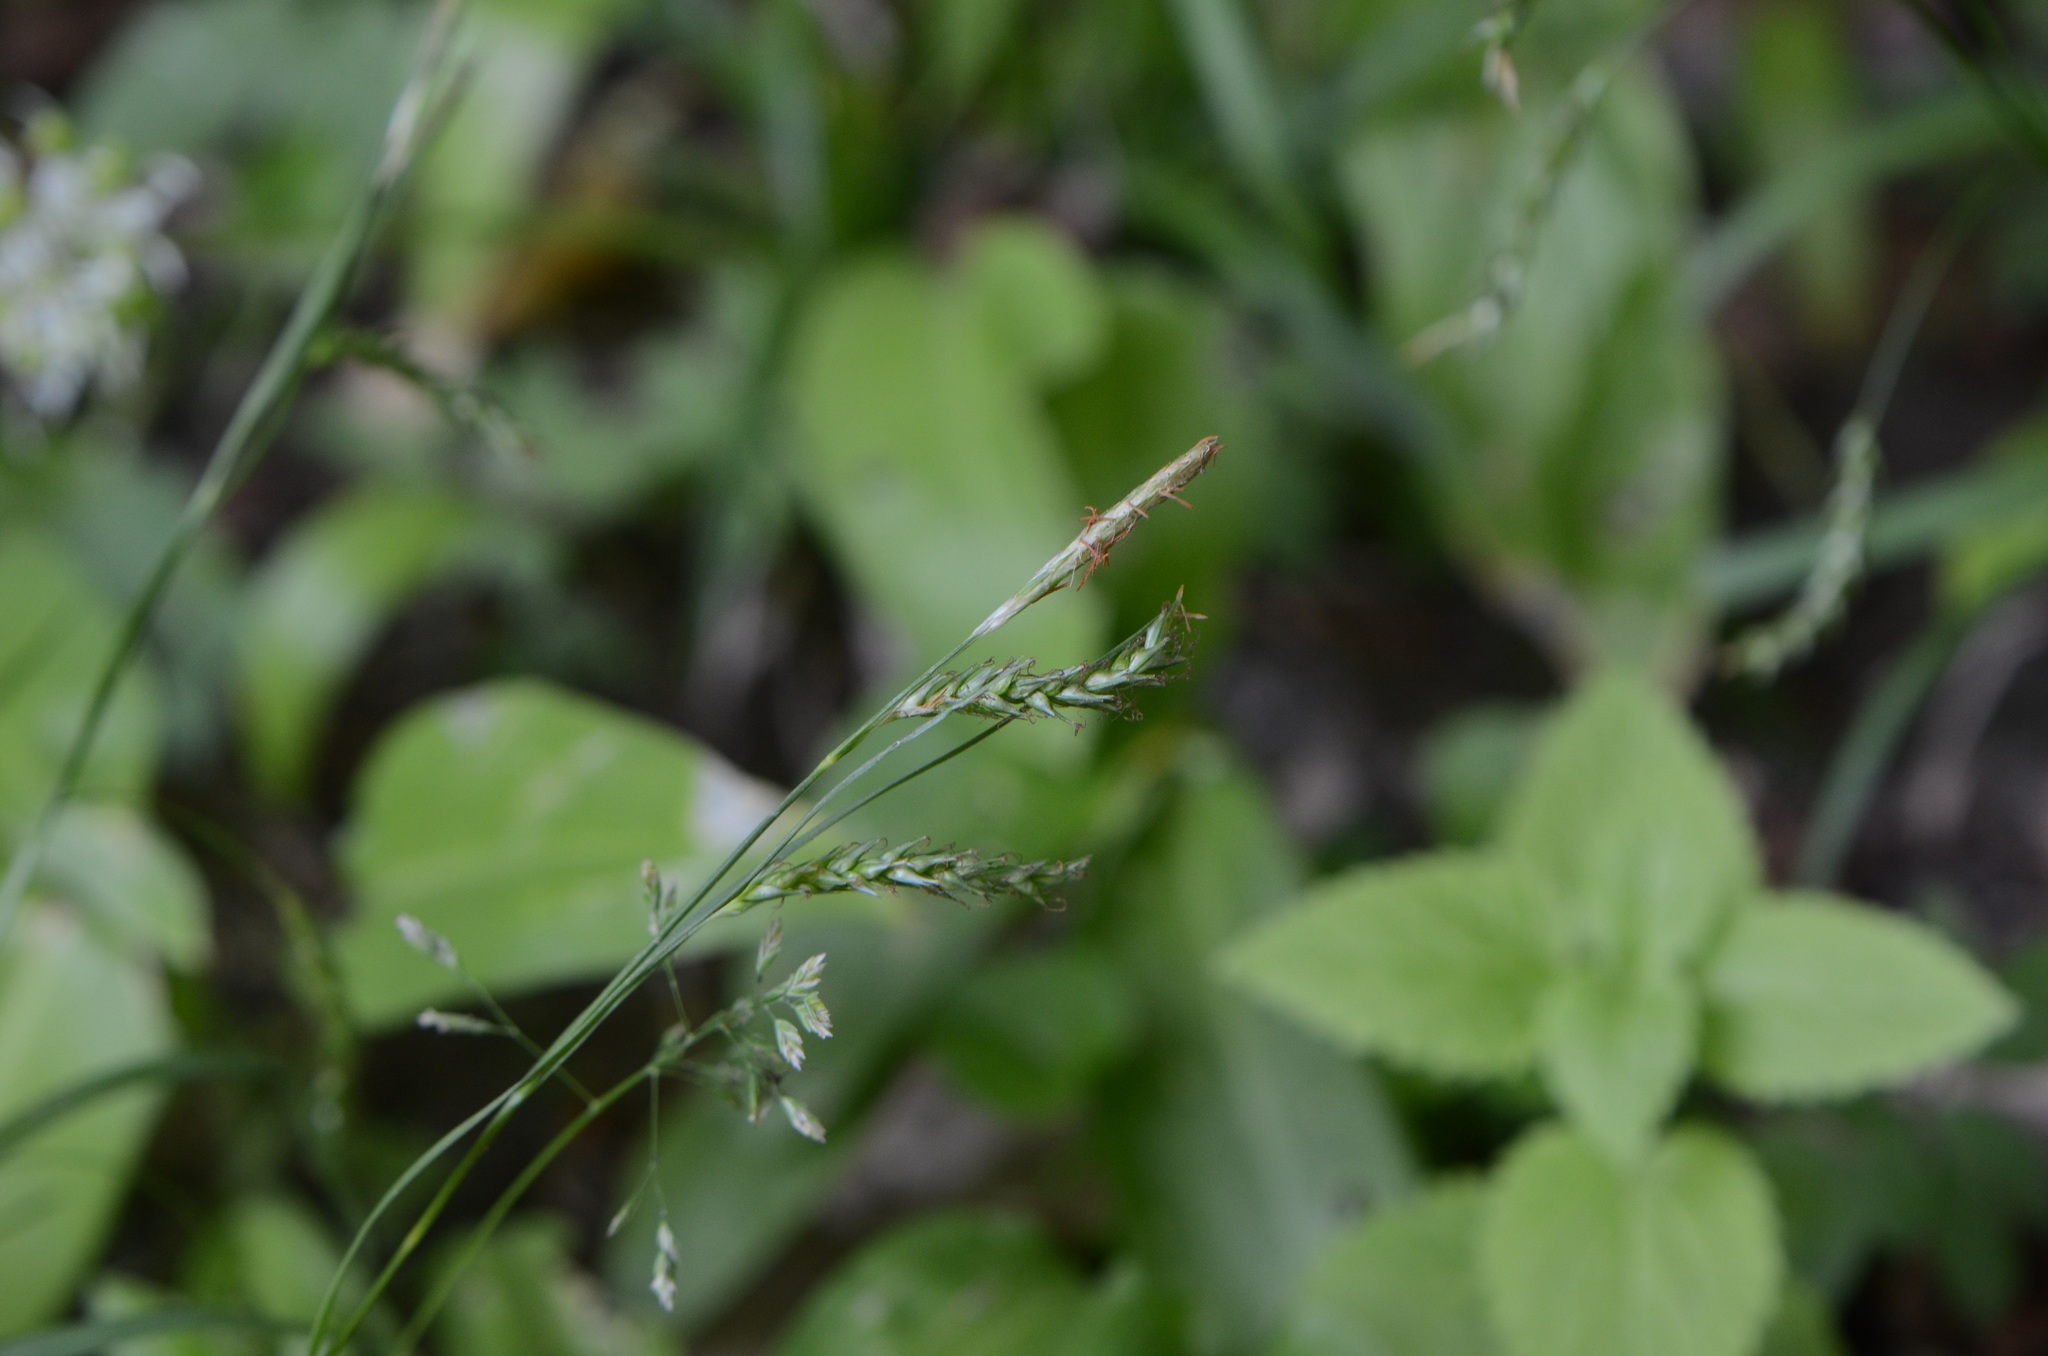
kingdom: Plantae
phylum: Tracheophyta
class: Liliopsida
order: Poales
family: Cyperaceae
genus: Carex
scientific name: Carex sylvatica
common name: Wood-sedge
